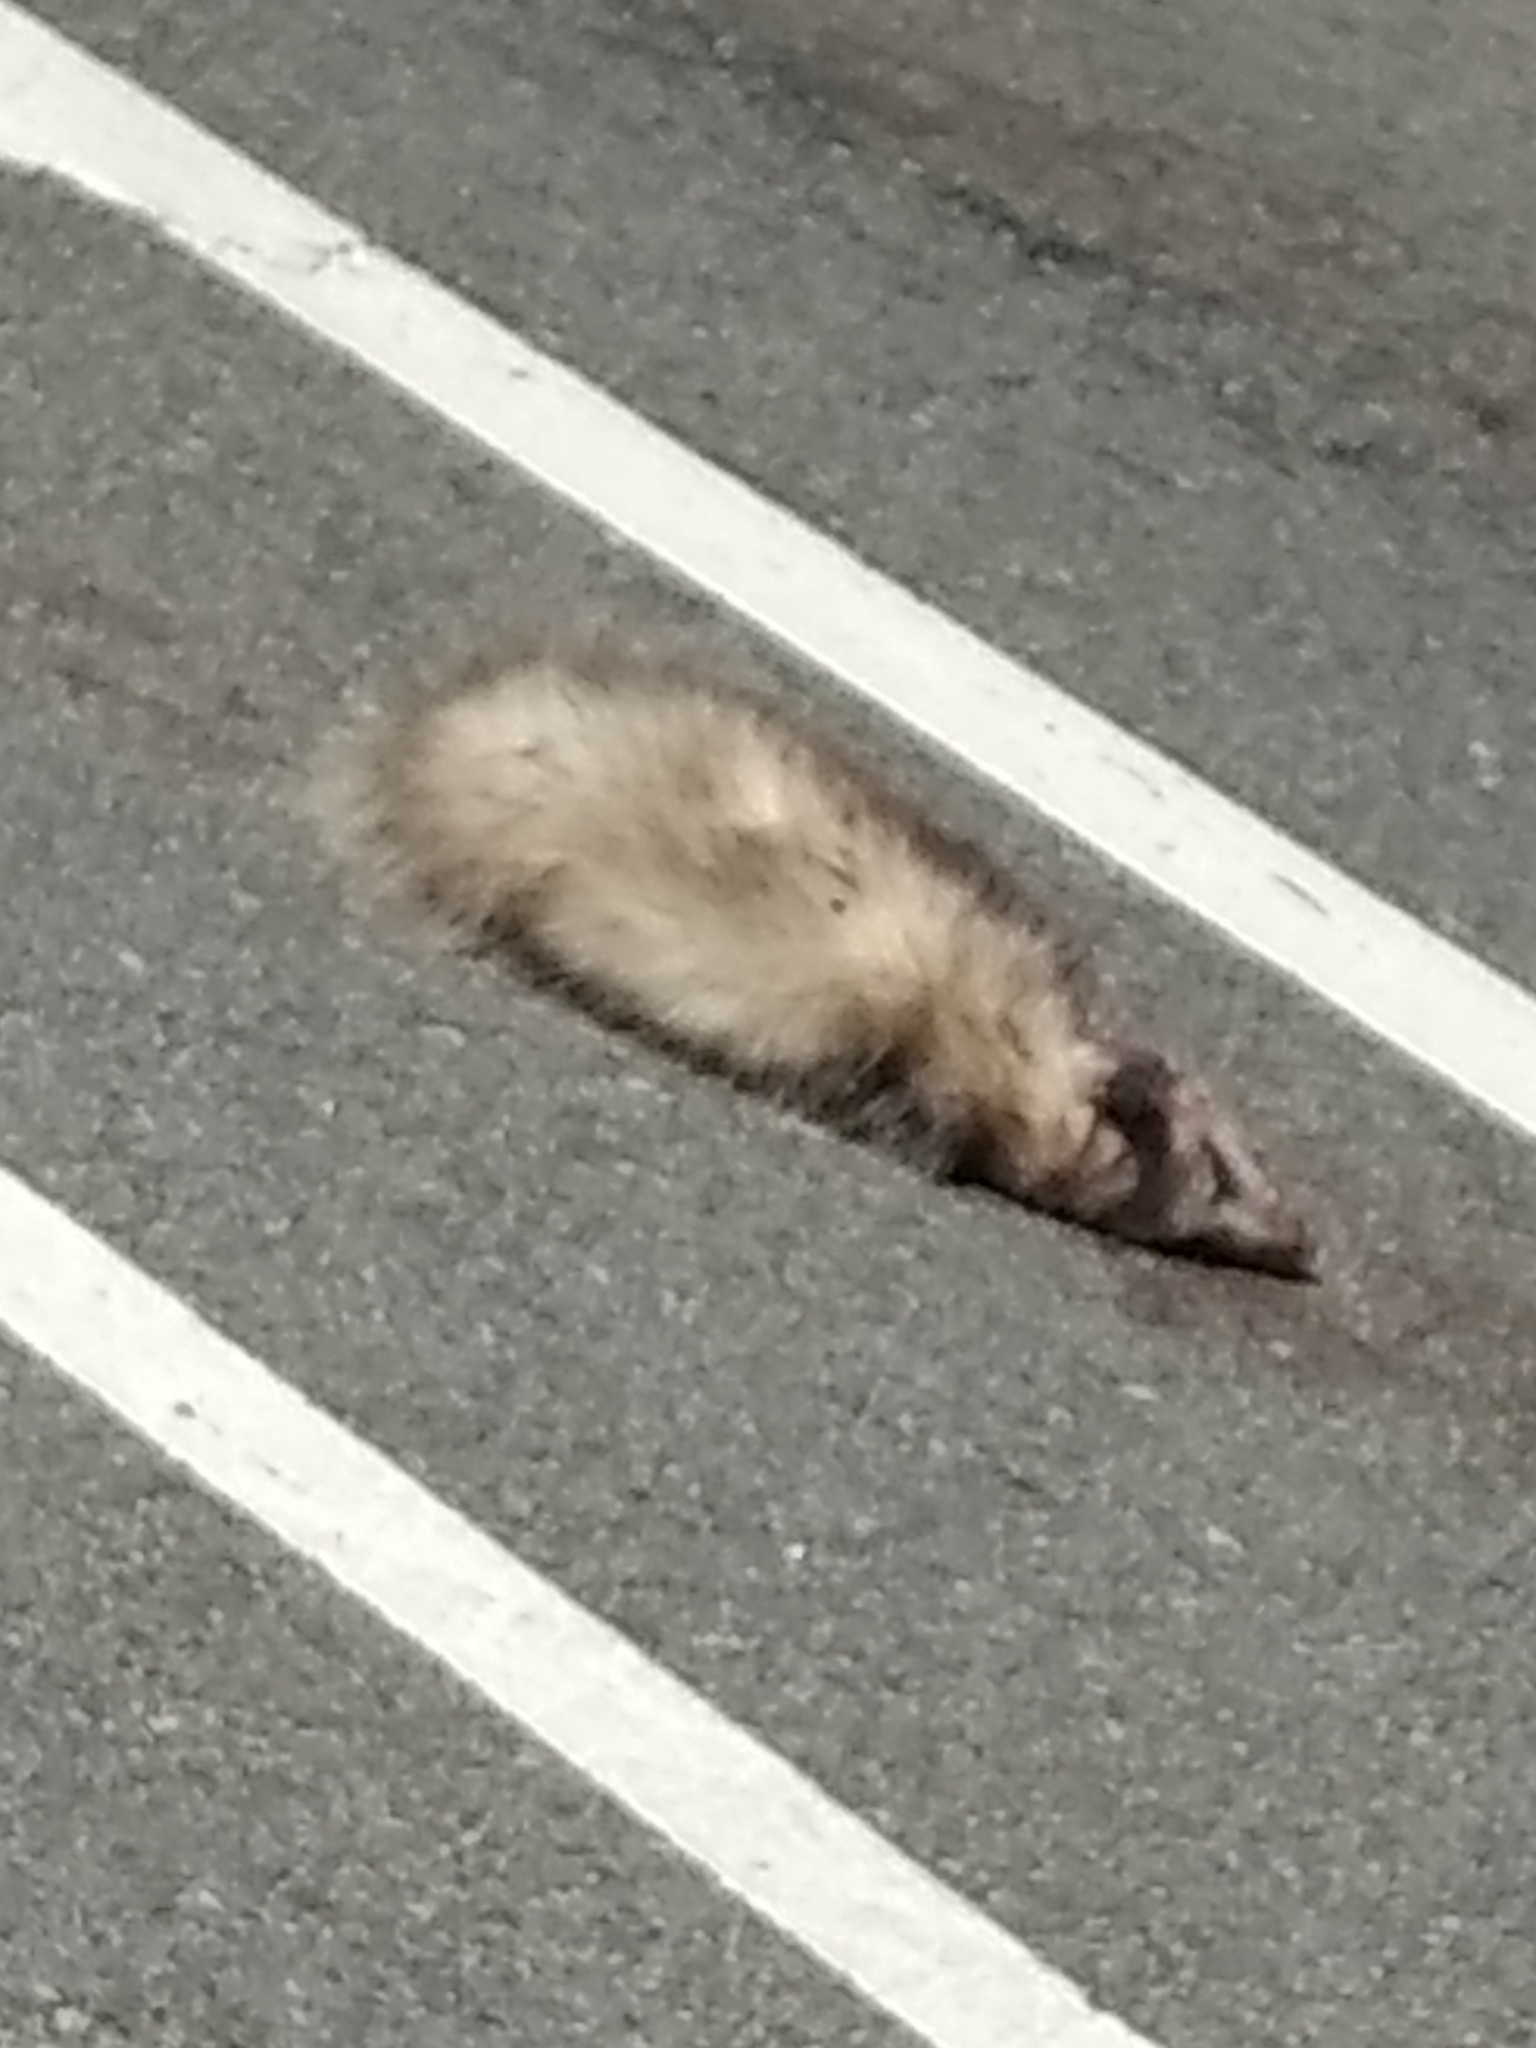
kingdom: Animalia
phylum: Chordata
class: Mammalia
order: Didelphimorphia
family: Didelphidae
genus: Didelphis
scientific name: Didelphis virginiana
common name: Virginia opossum
